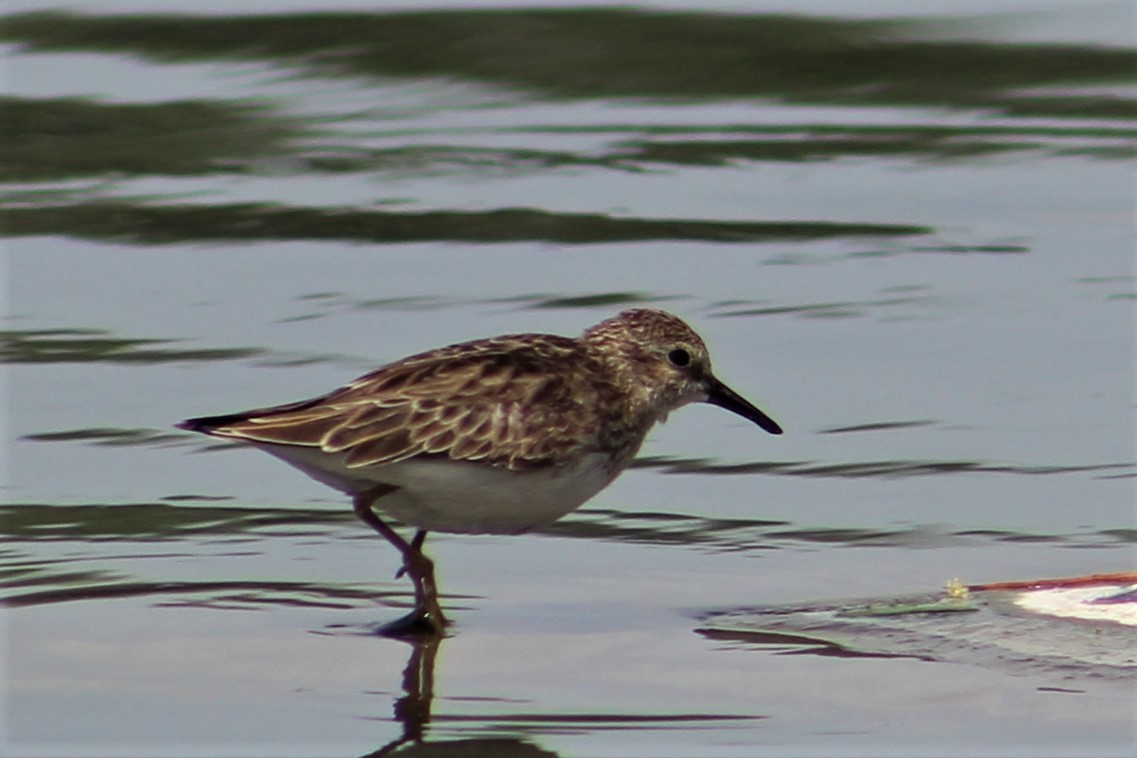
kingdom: Animalia
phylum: Chordata
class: Aves
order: Charadriiformes
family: Scolopacidae
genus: Calidris
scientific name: Calidris minutilla
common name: Least sandpiper
